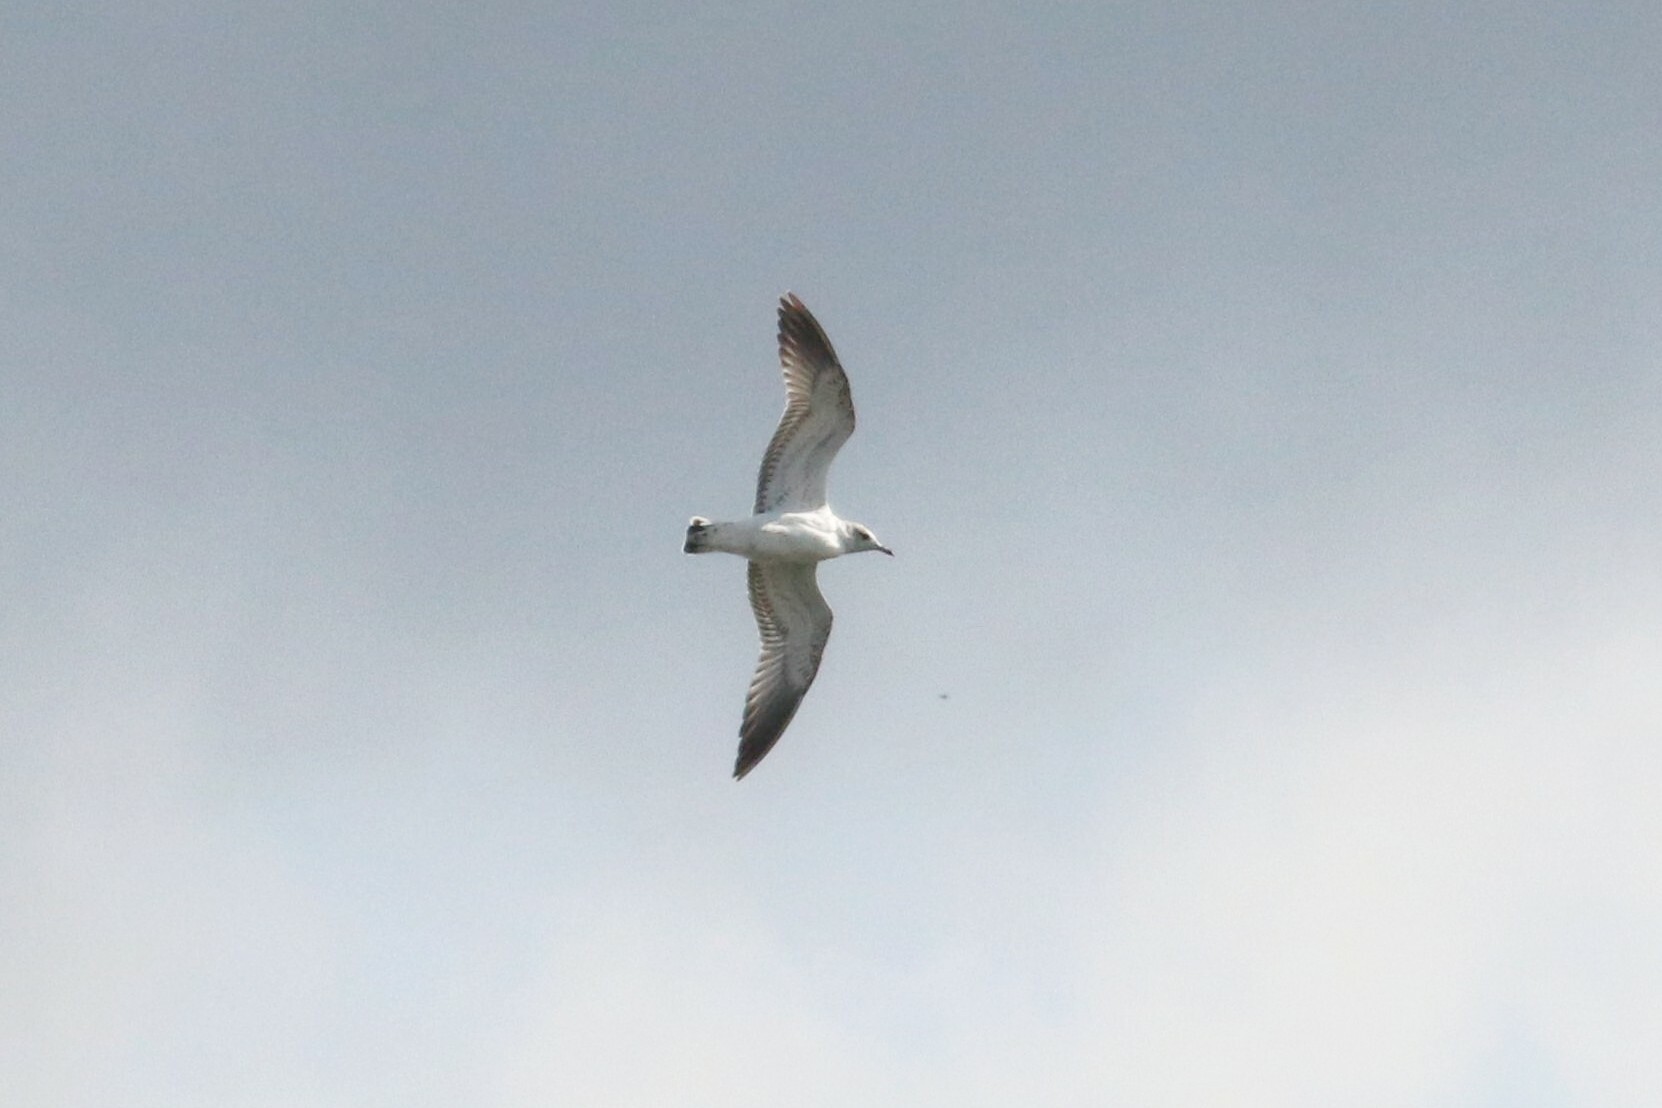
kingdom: Animalia
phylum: Chordata
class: Aves
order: Charadriiformes
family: Laridae
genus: Larus
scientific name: Larus canus
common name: Mew gull
